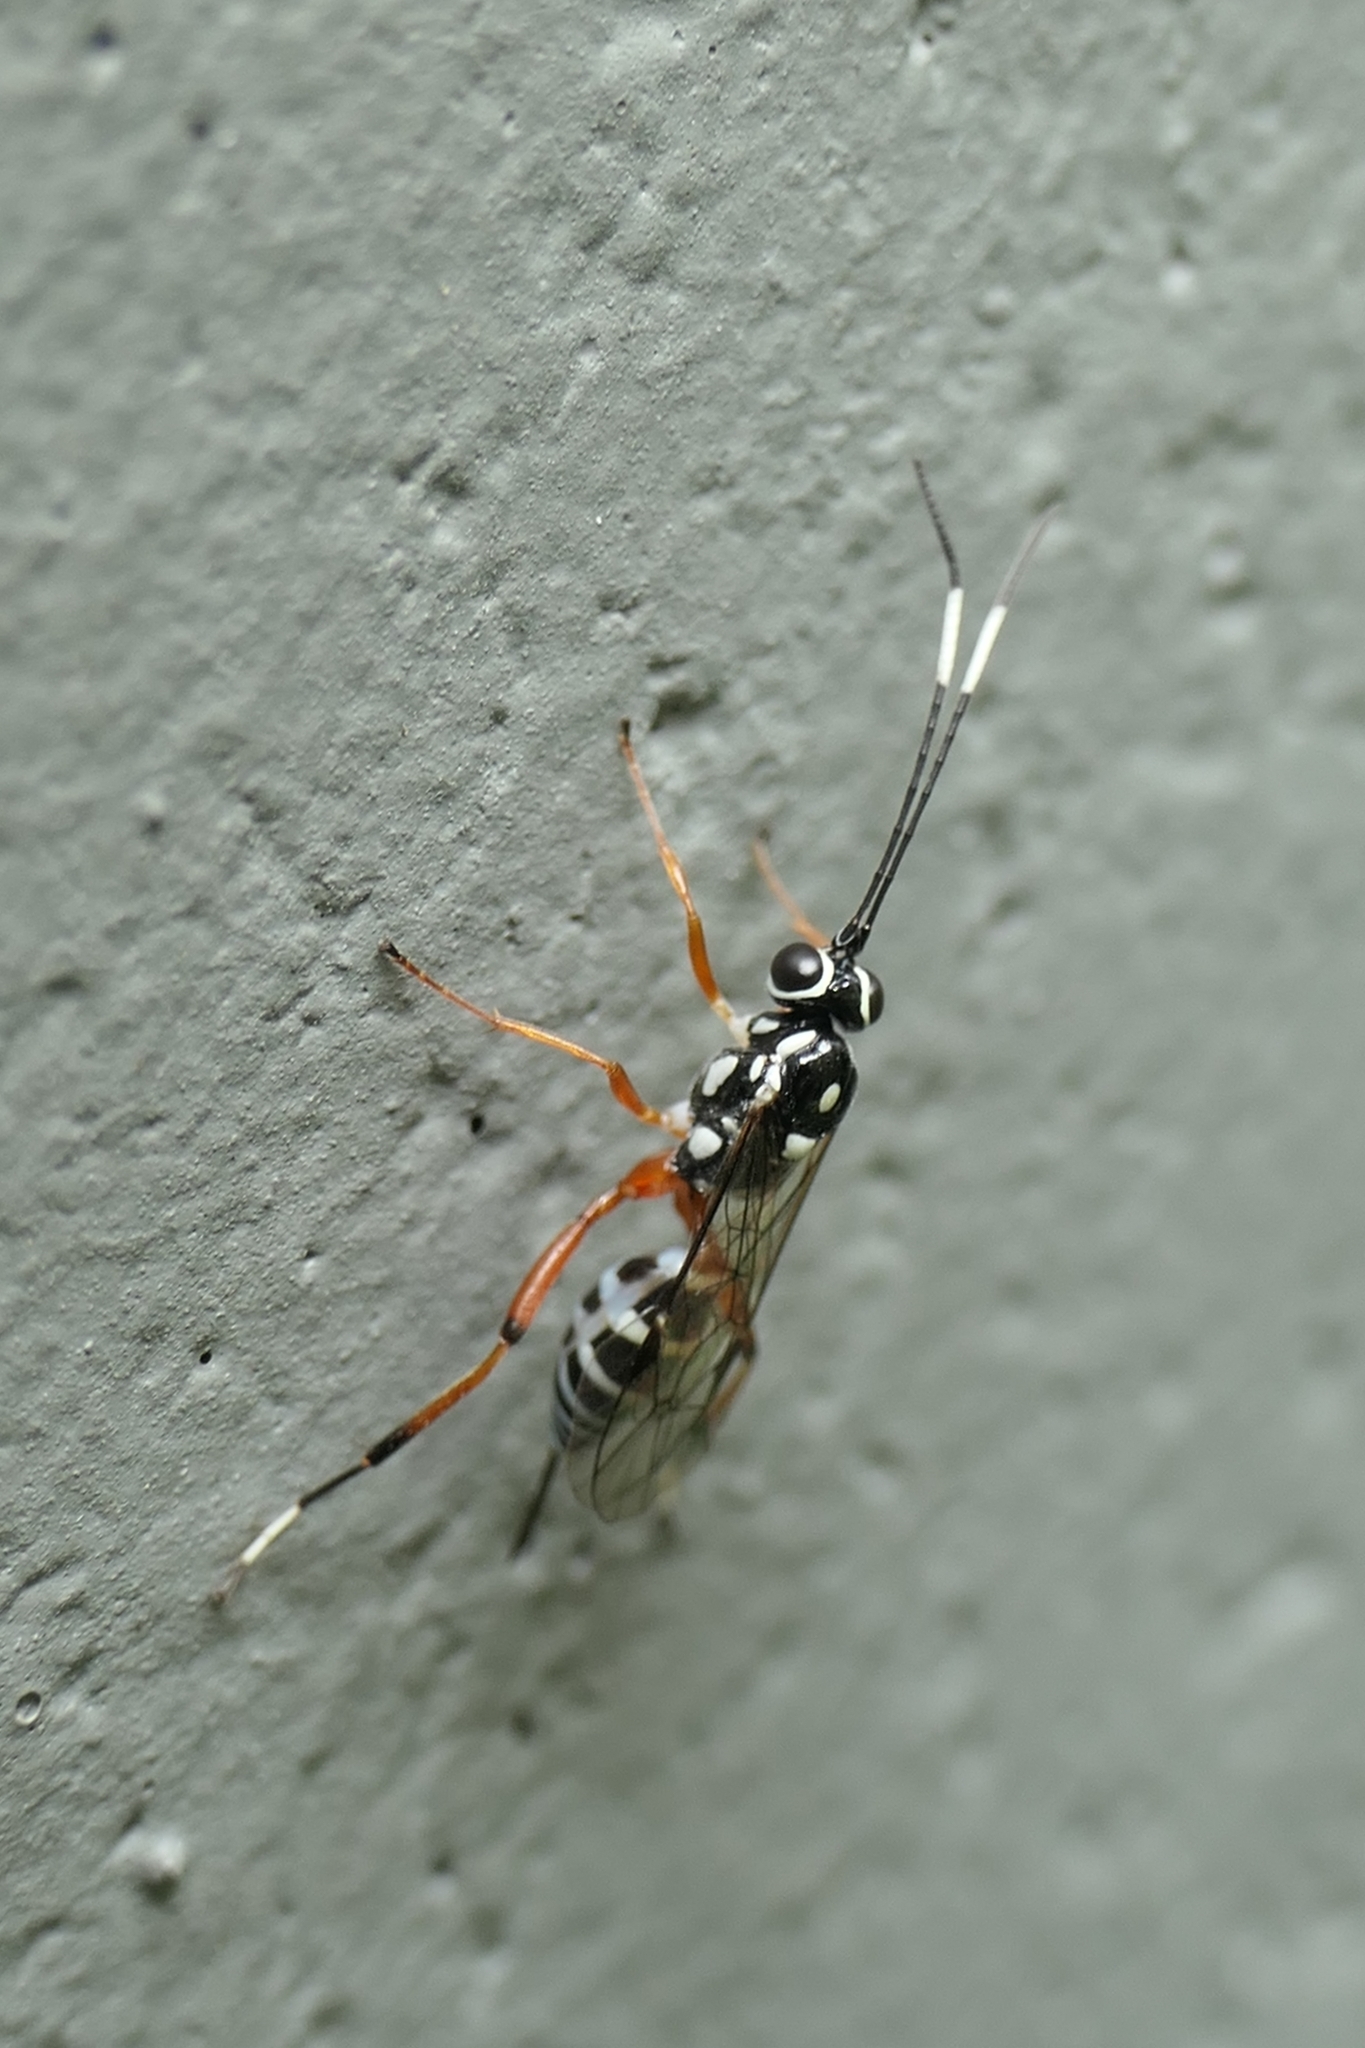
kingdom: Animalia
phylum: Arthropoda
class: Insecta
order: Hymenoptera
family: Ichneumonidae
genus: Glabridorsum
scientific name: Glabridorsum stokesii
